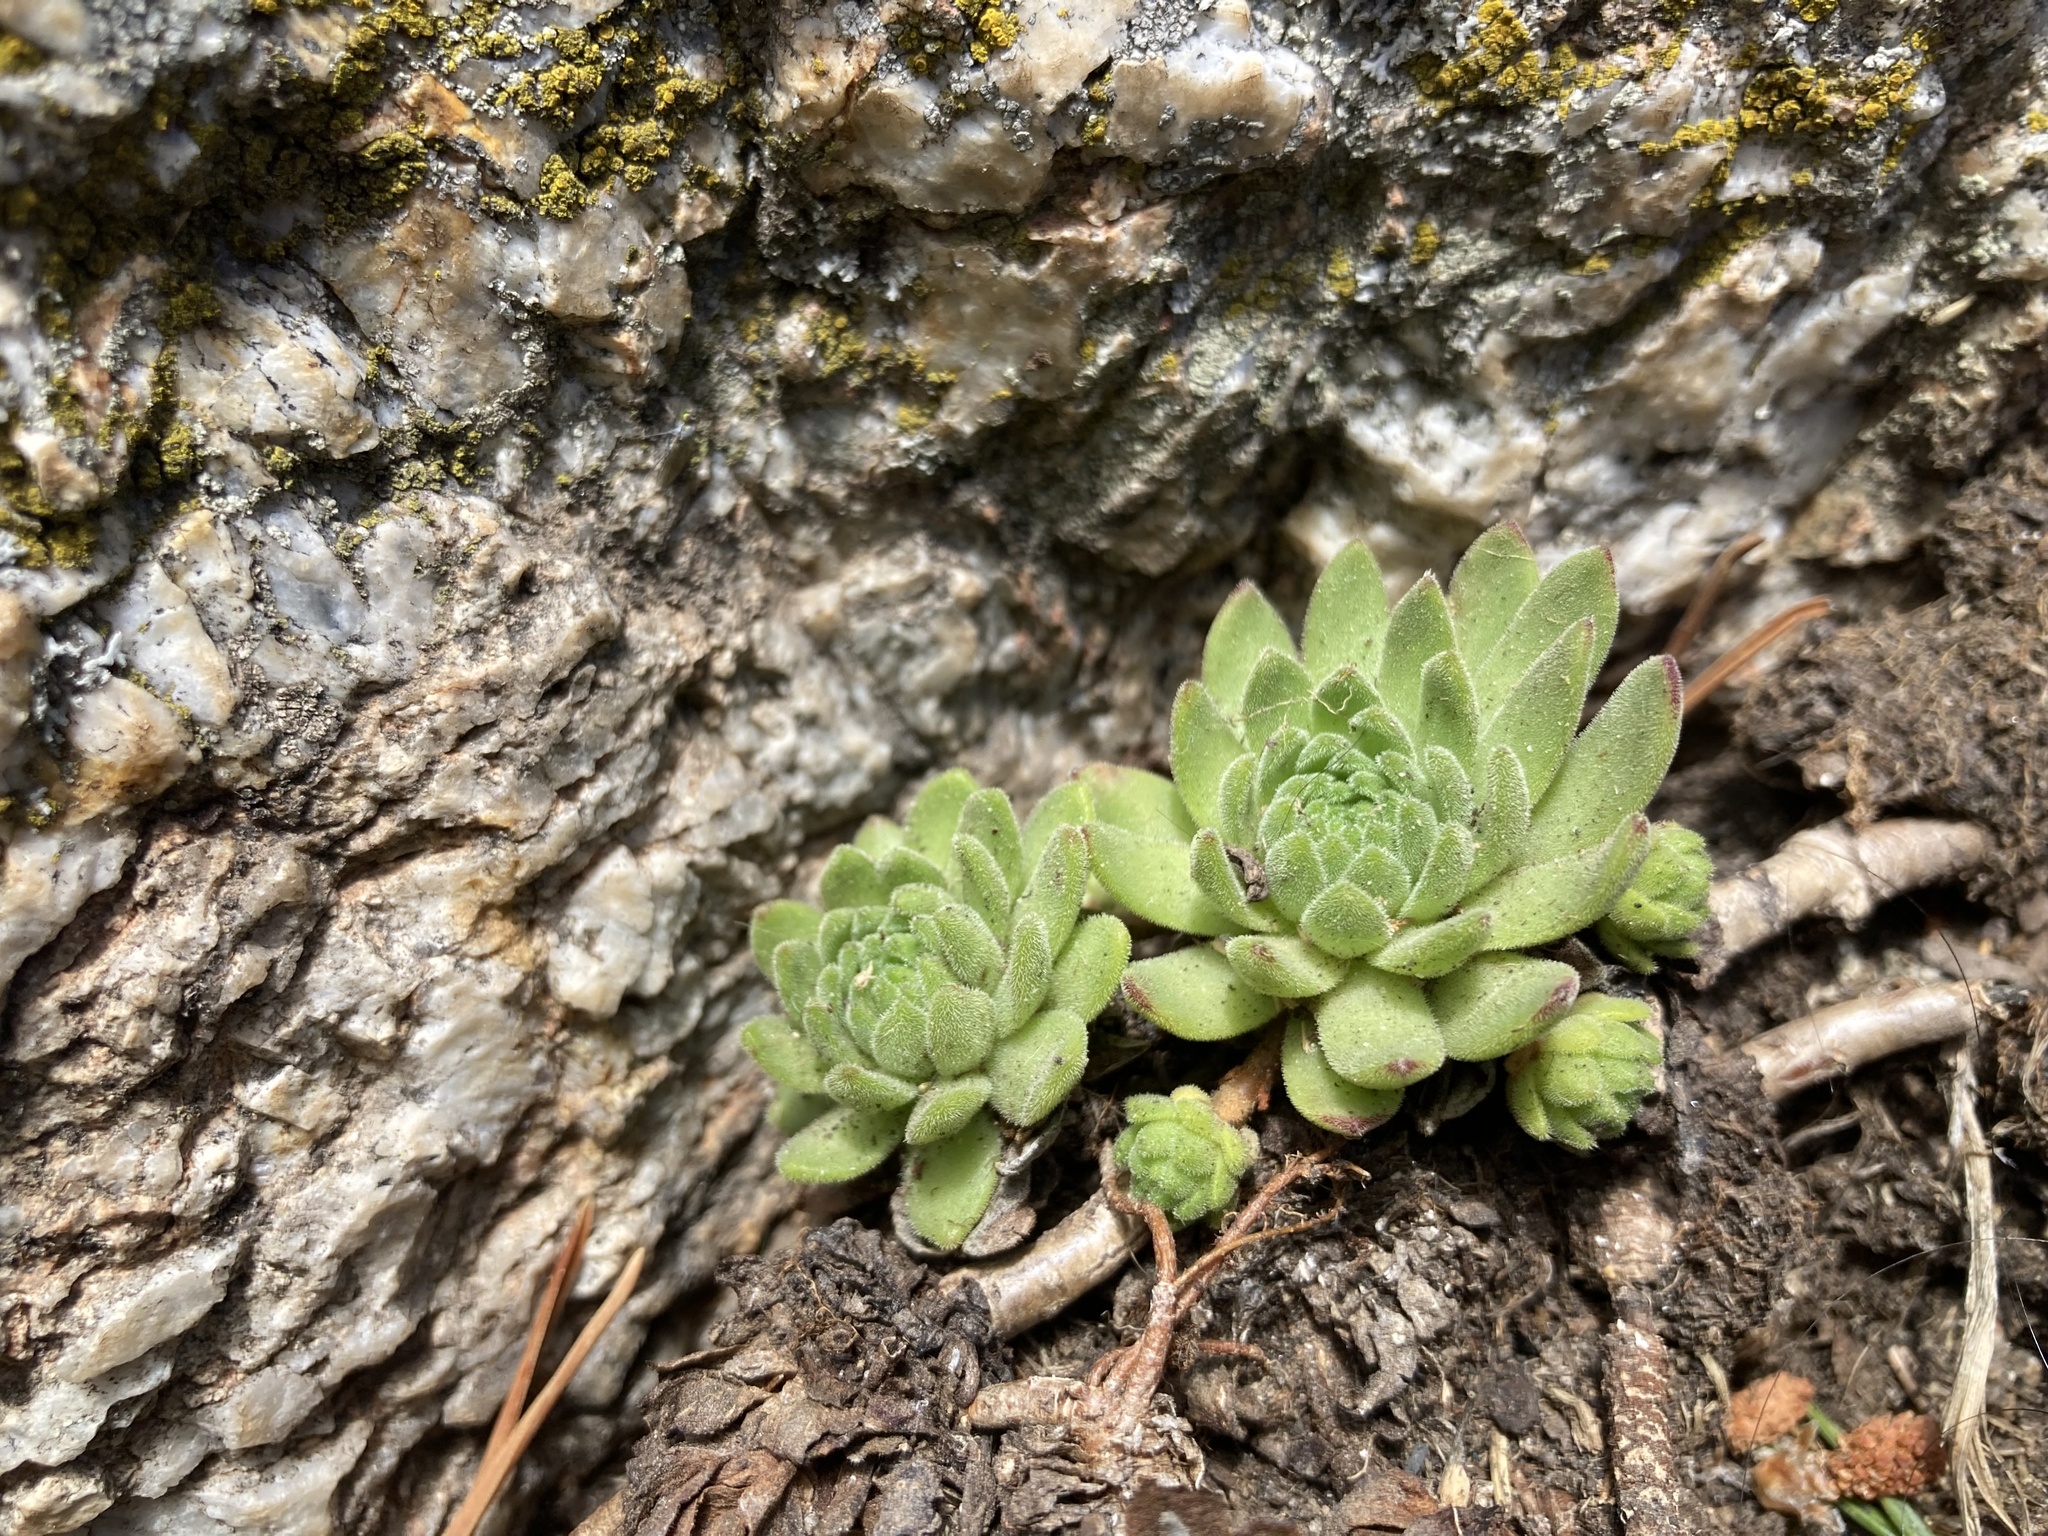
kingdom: Plantae
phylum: Tracheophyta
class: Magnoliopsida
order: Saxifragales
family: Crassulaceae
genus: Sempervivum
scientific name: Sempervivum montanum
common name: Mountain house-leek
